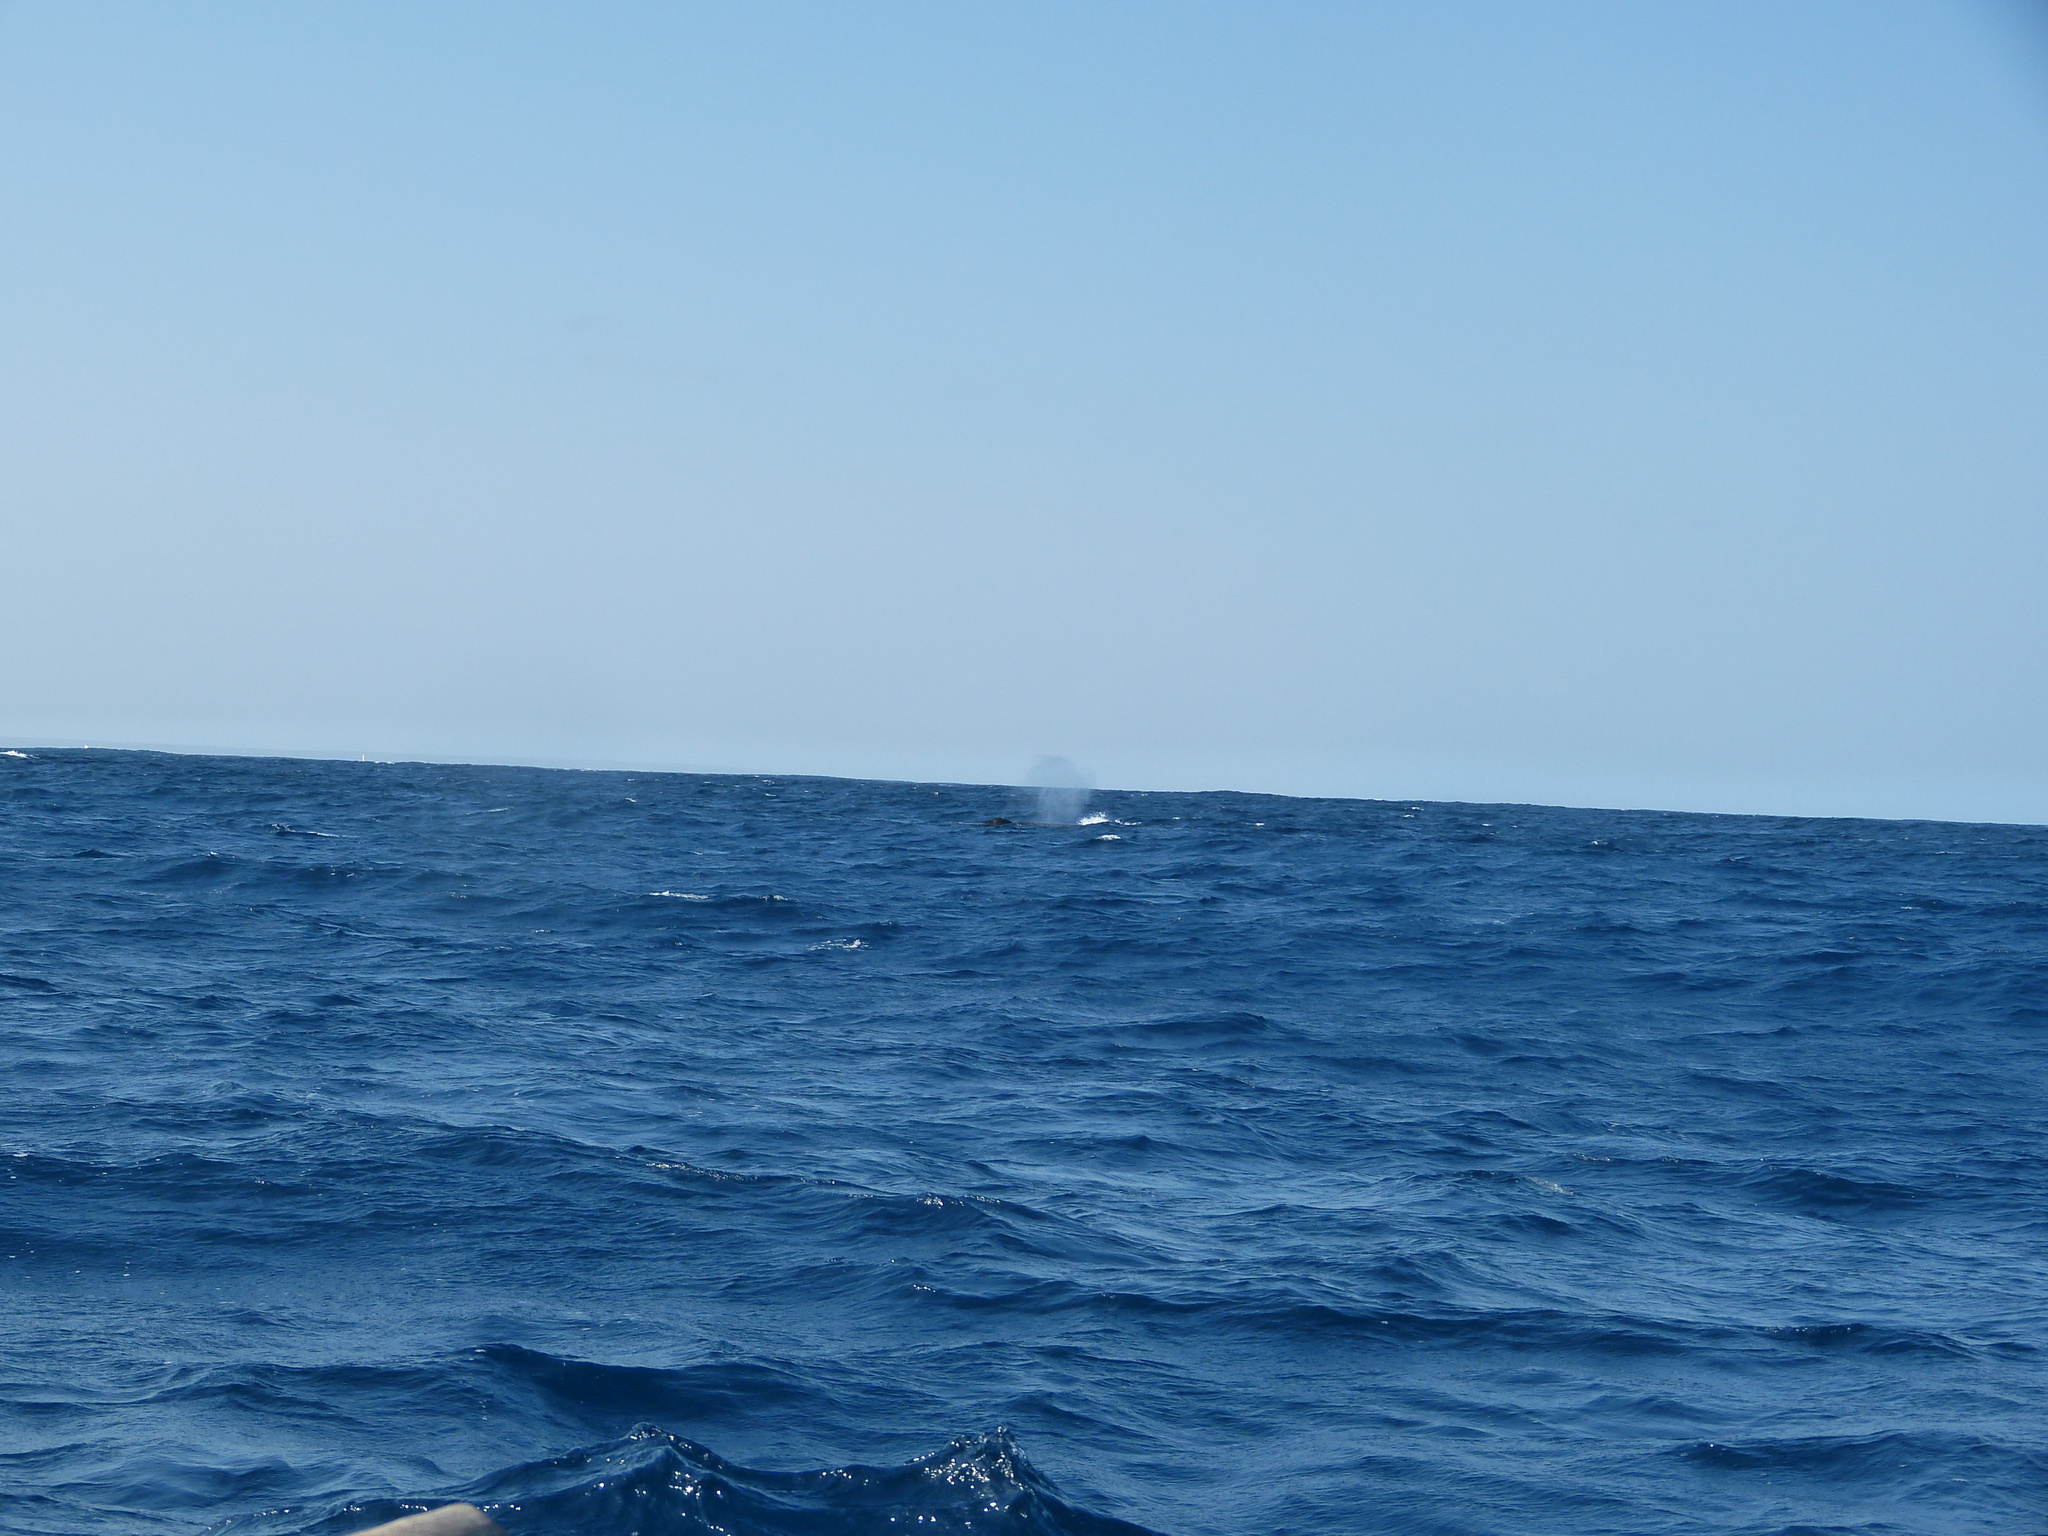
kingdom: Animalia
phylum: Chordata
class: Mammalia
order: Cetacea
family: Balaenopteridae
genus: Megaptera
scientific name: Megaptera novaeangliae
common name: Humpback whale
